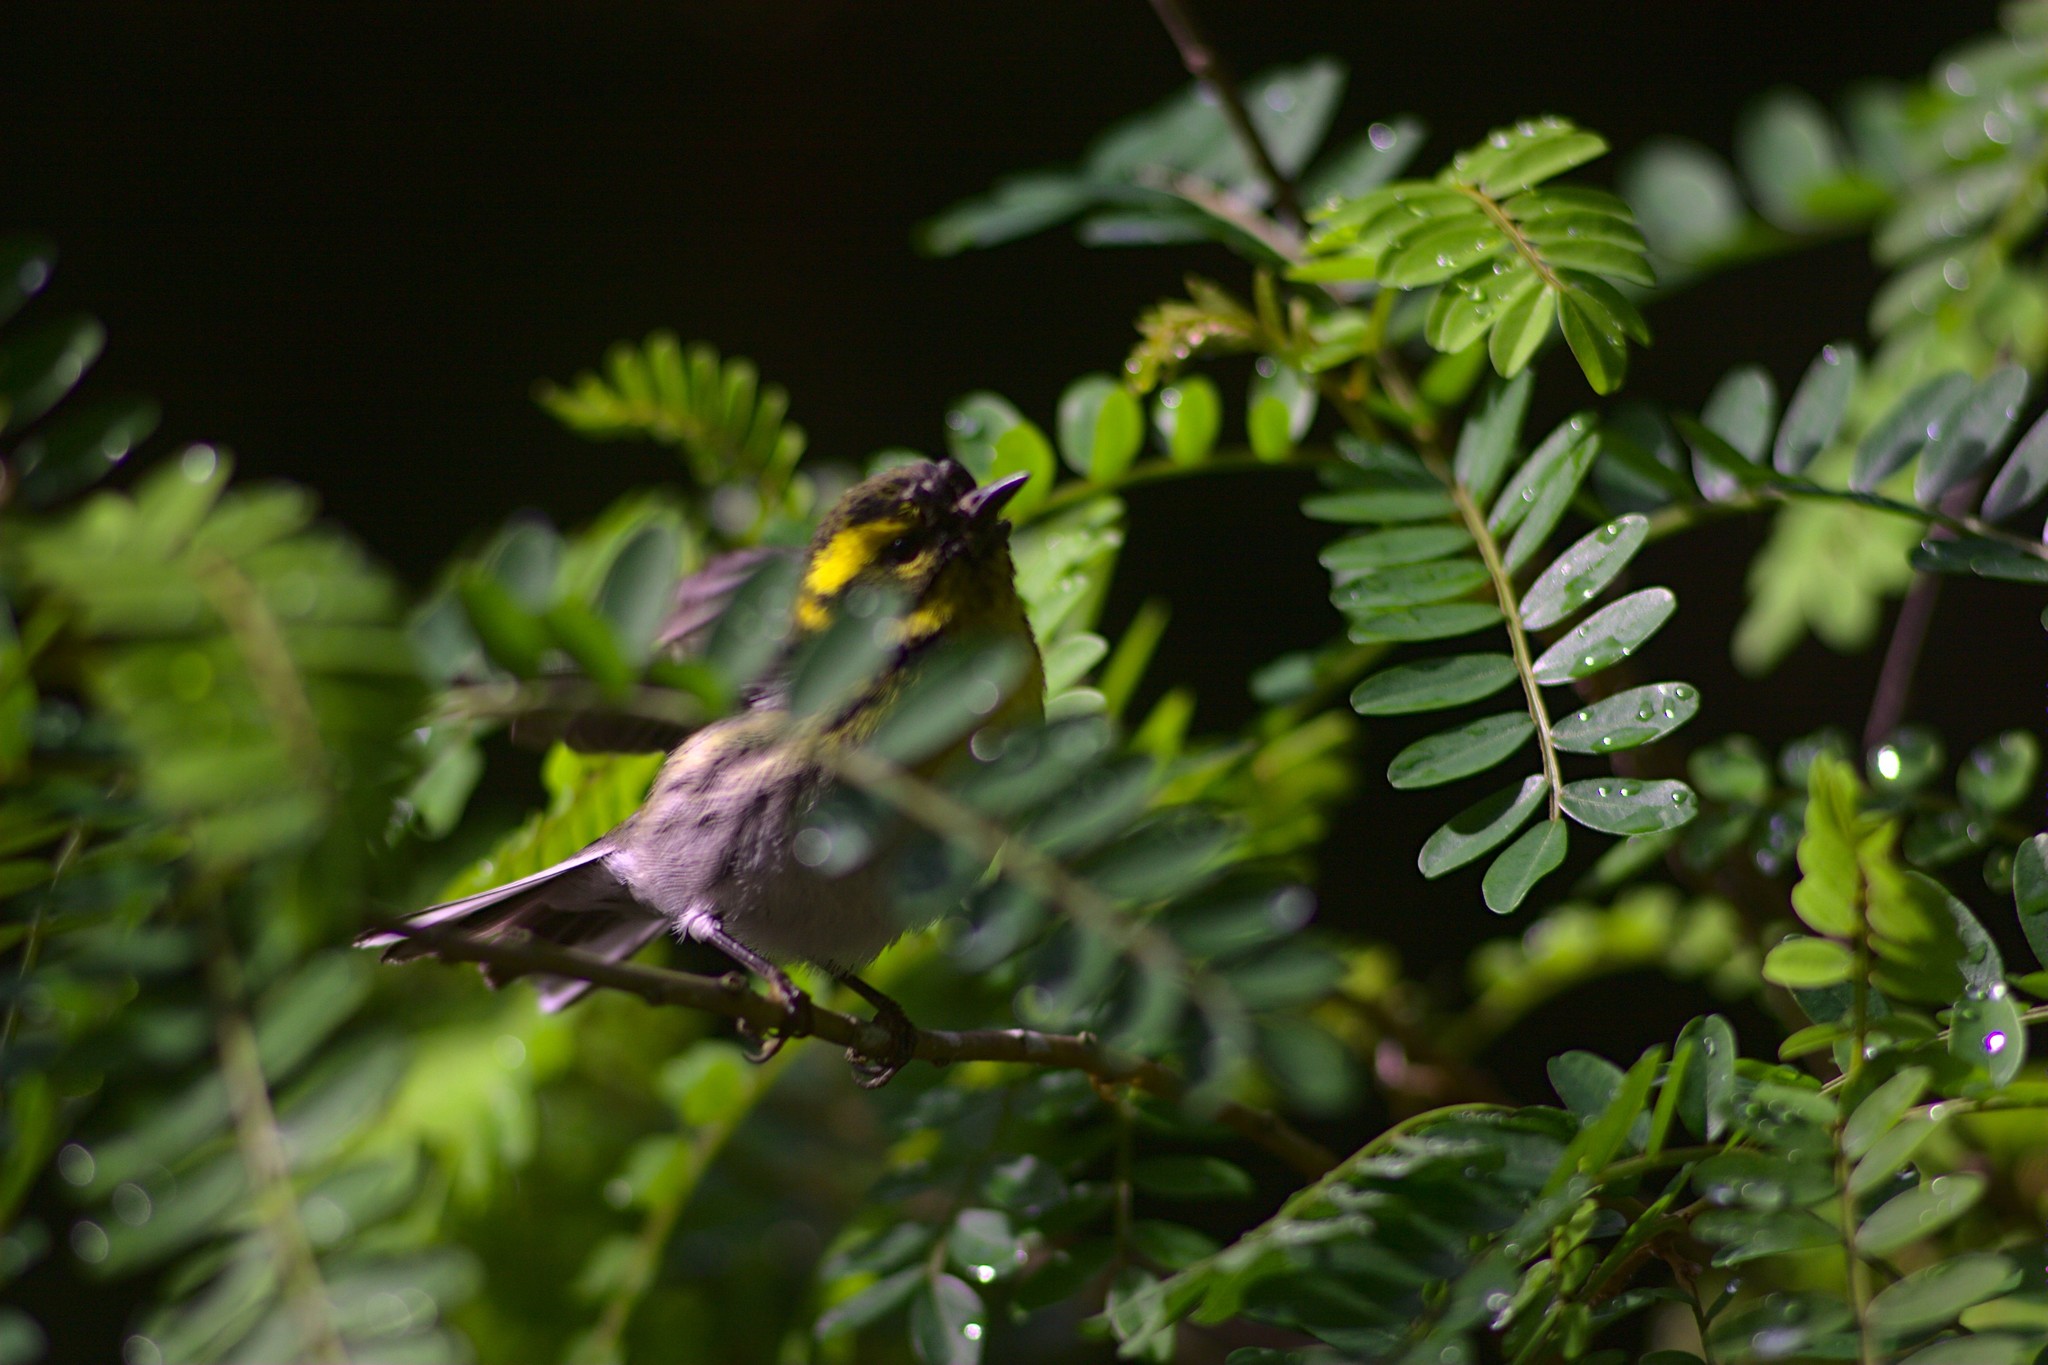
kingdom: Animalia
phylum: Chordata
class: Aves
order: Passeriformes
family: Parulidae
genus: Setophaga
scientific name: Setophaga townsendi
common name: Townsend's warbler
